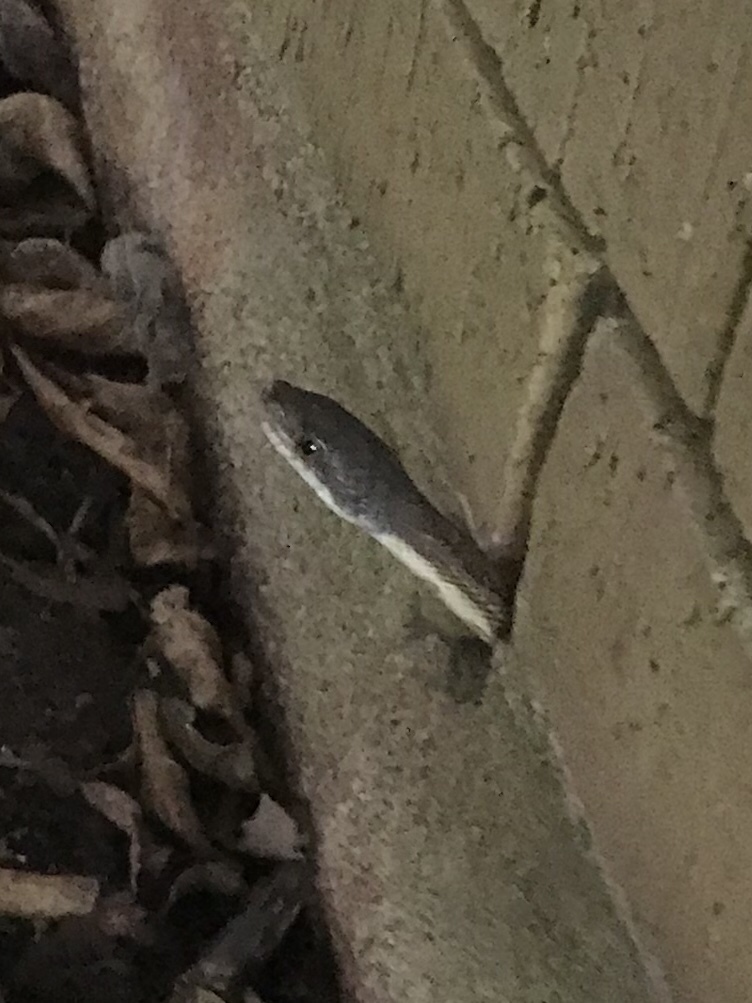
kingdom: Animalia
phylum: Chordata
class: Squamata
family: Colubridae
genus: Pantherophis
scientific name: Pantherophis obsoletus
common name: Black rat snake
